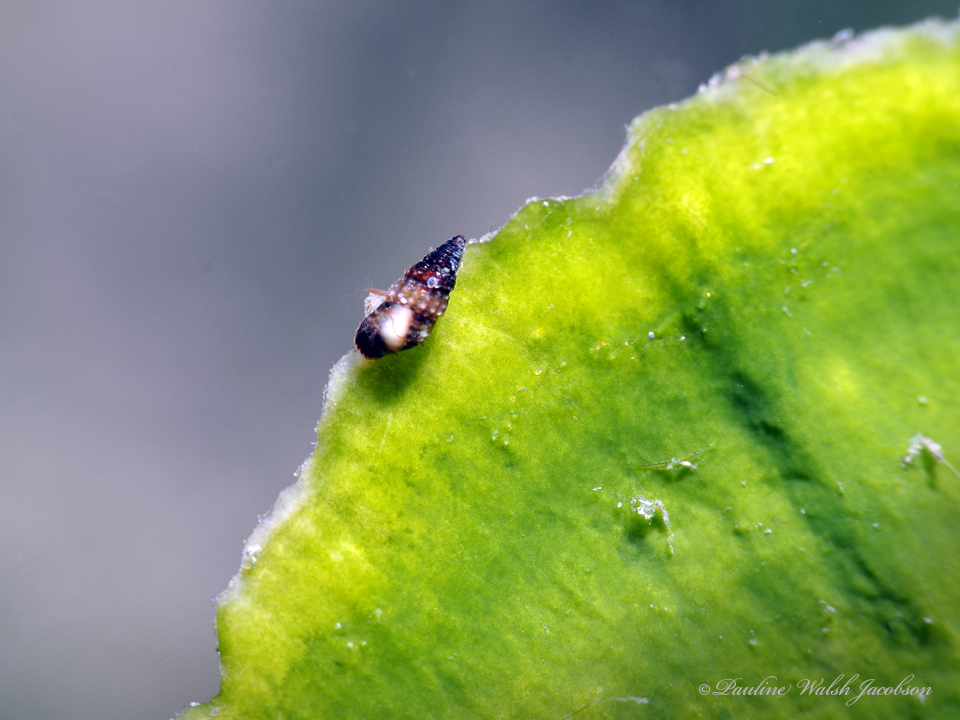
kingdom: Animalia
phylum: Mollusca
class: Gastropoda
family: Cerithiidae
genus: Bittiolum
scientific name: Bittiolum varium
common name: Grass cerith
